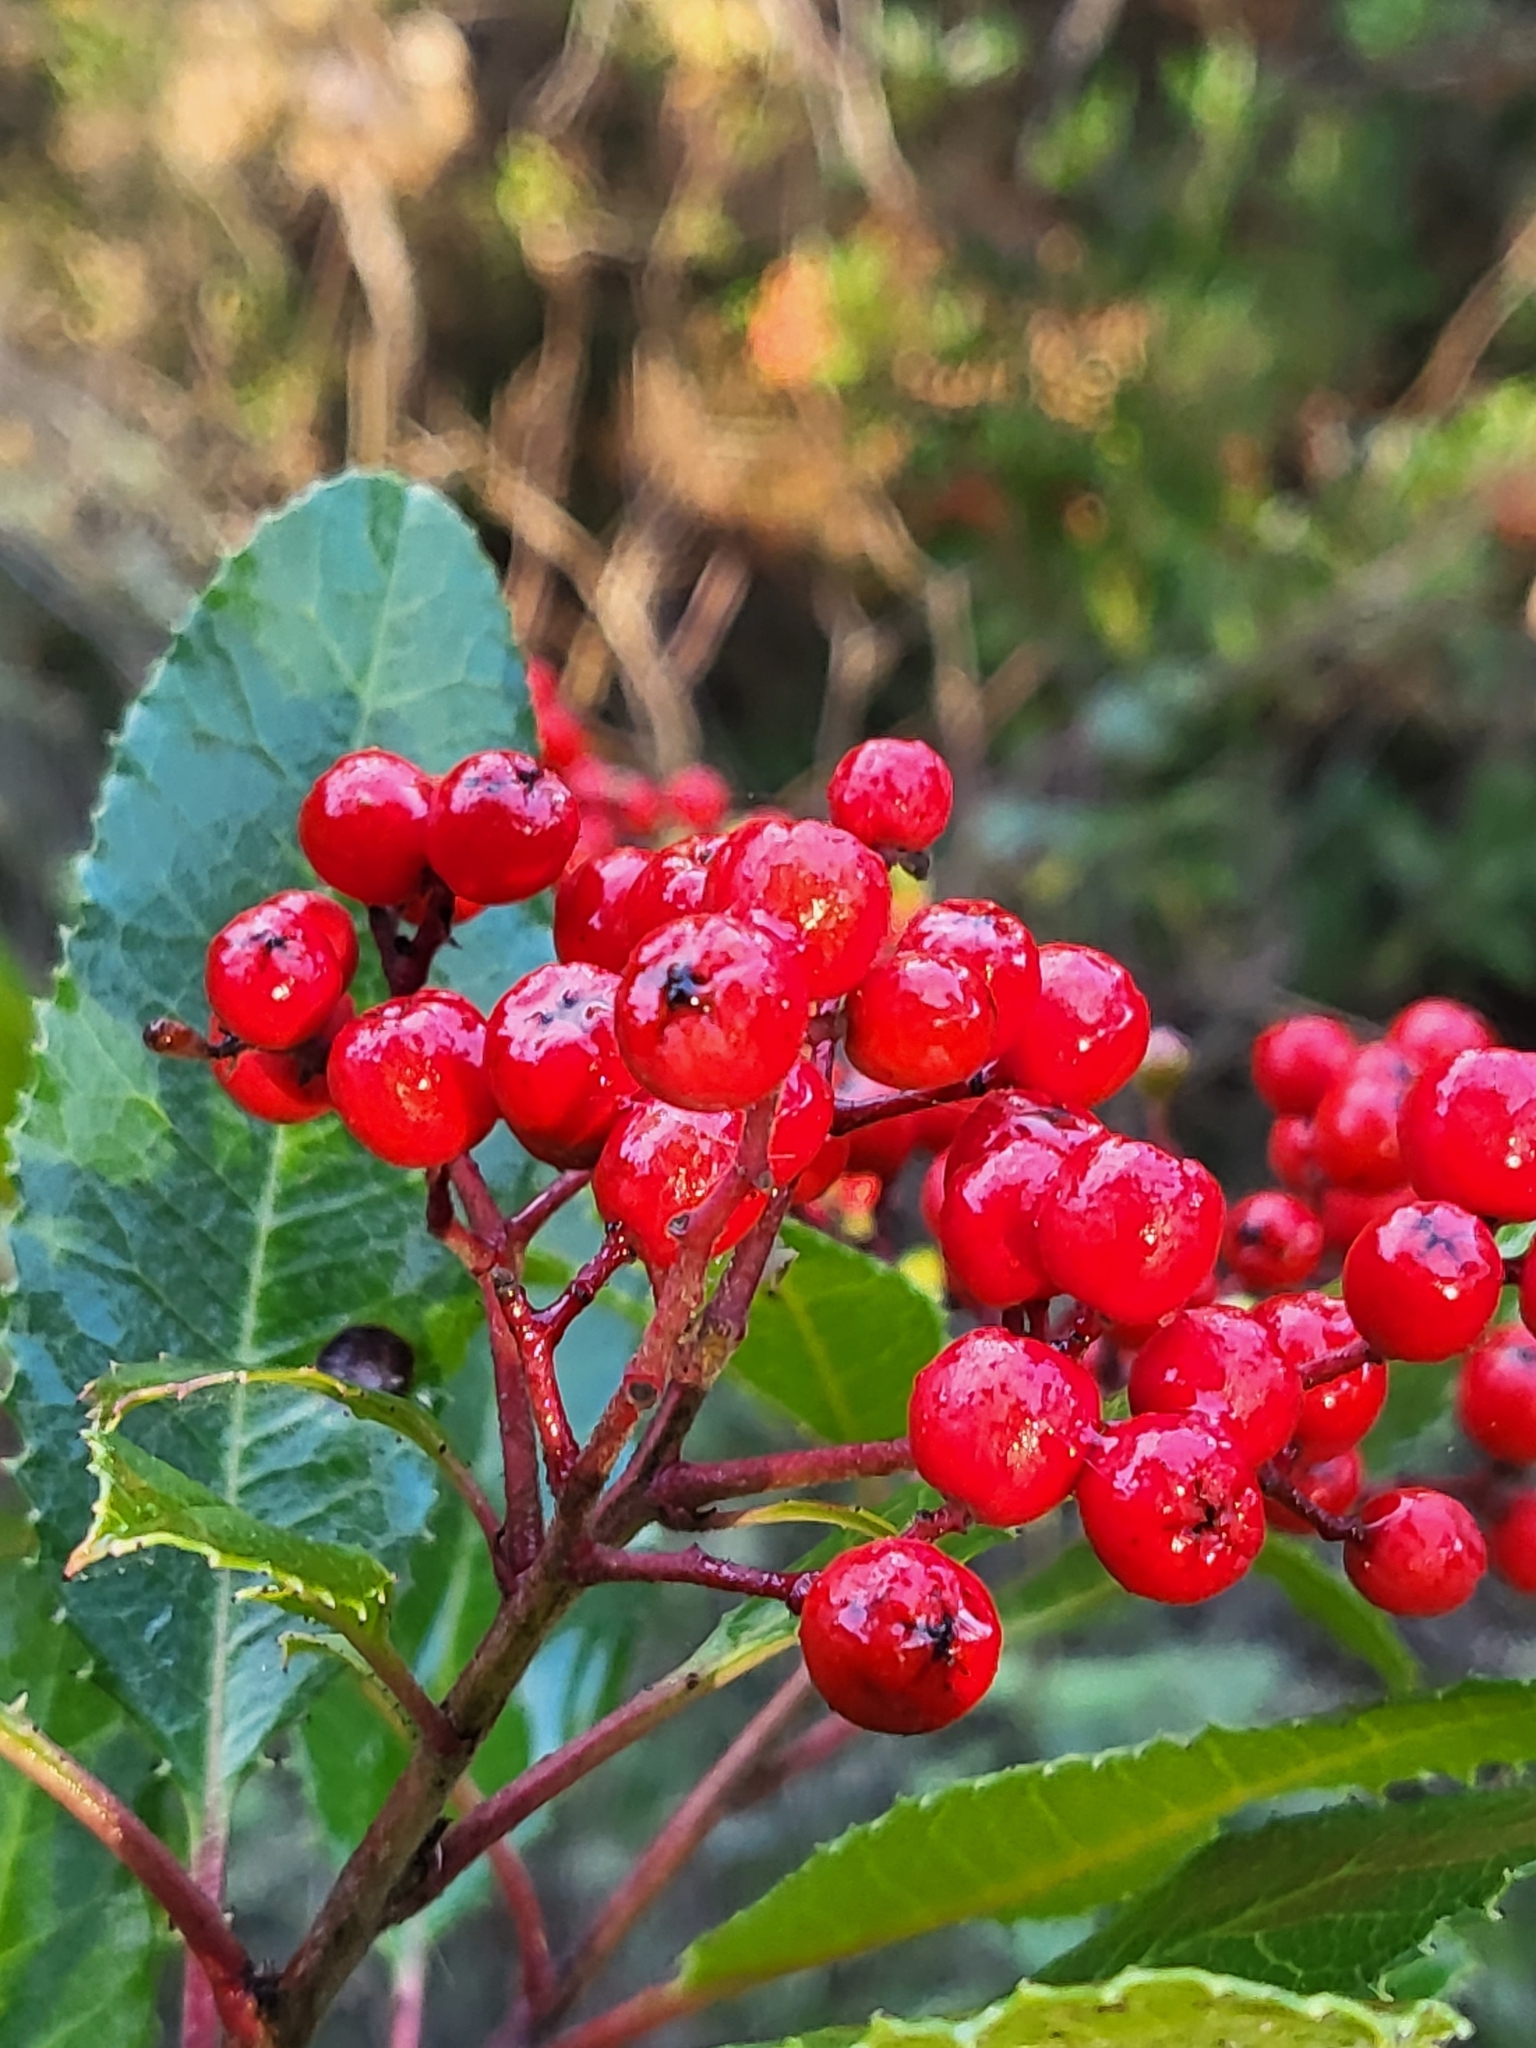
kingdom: Plantae
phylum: Tracheophyta
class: Magnoliopsida
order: Rosales
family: Rosaceae
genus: Heteromeles
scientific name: Heteromeles arbutifolia
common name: California-holly
